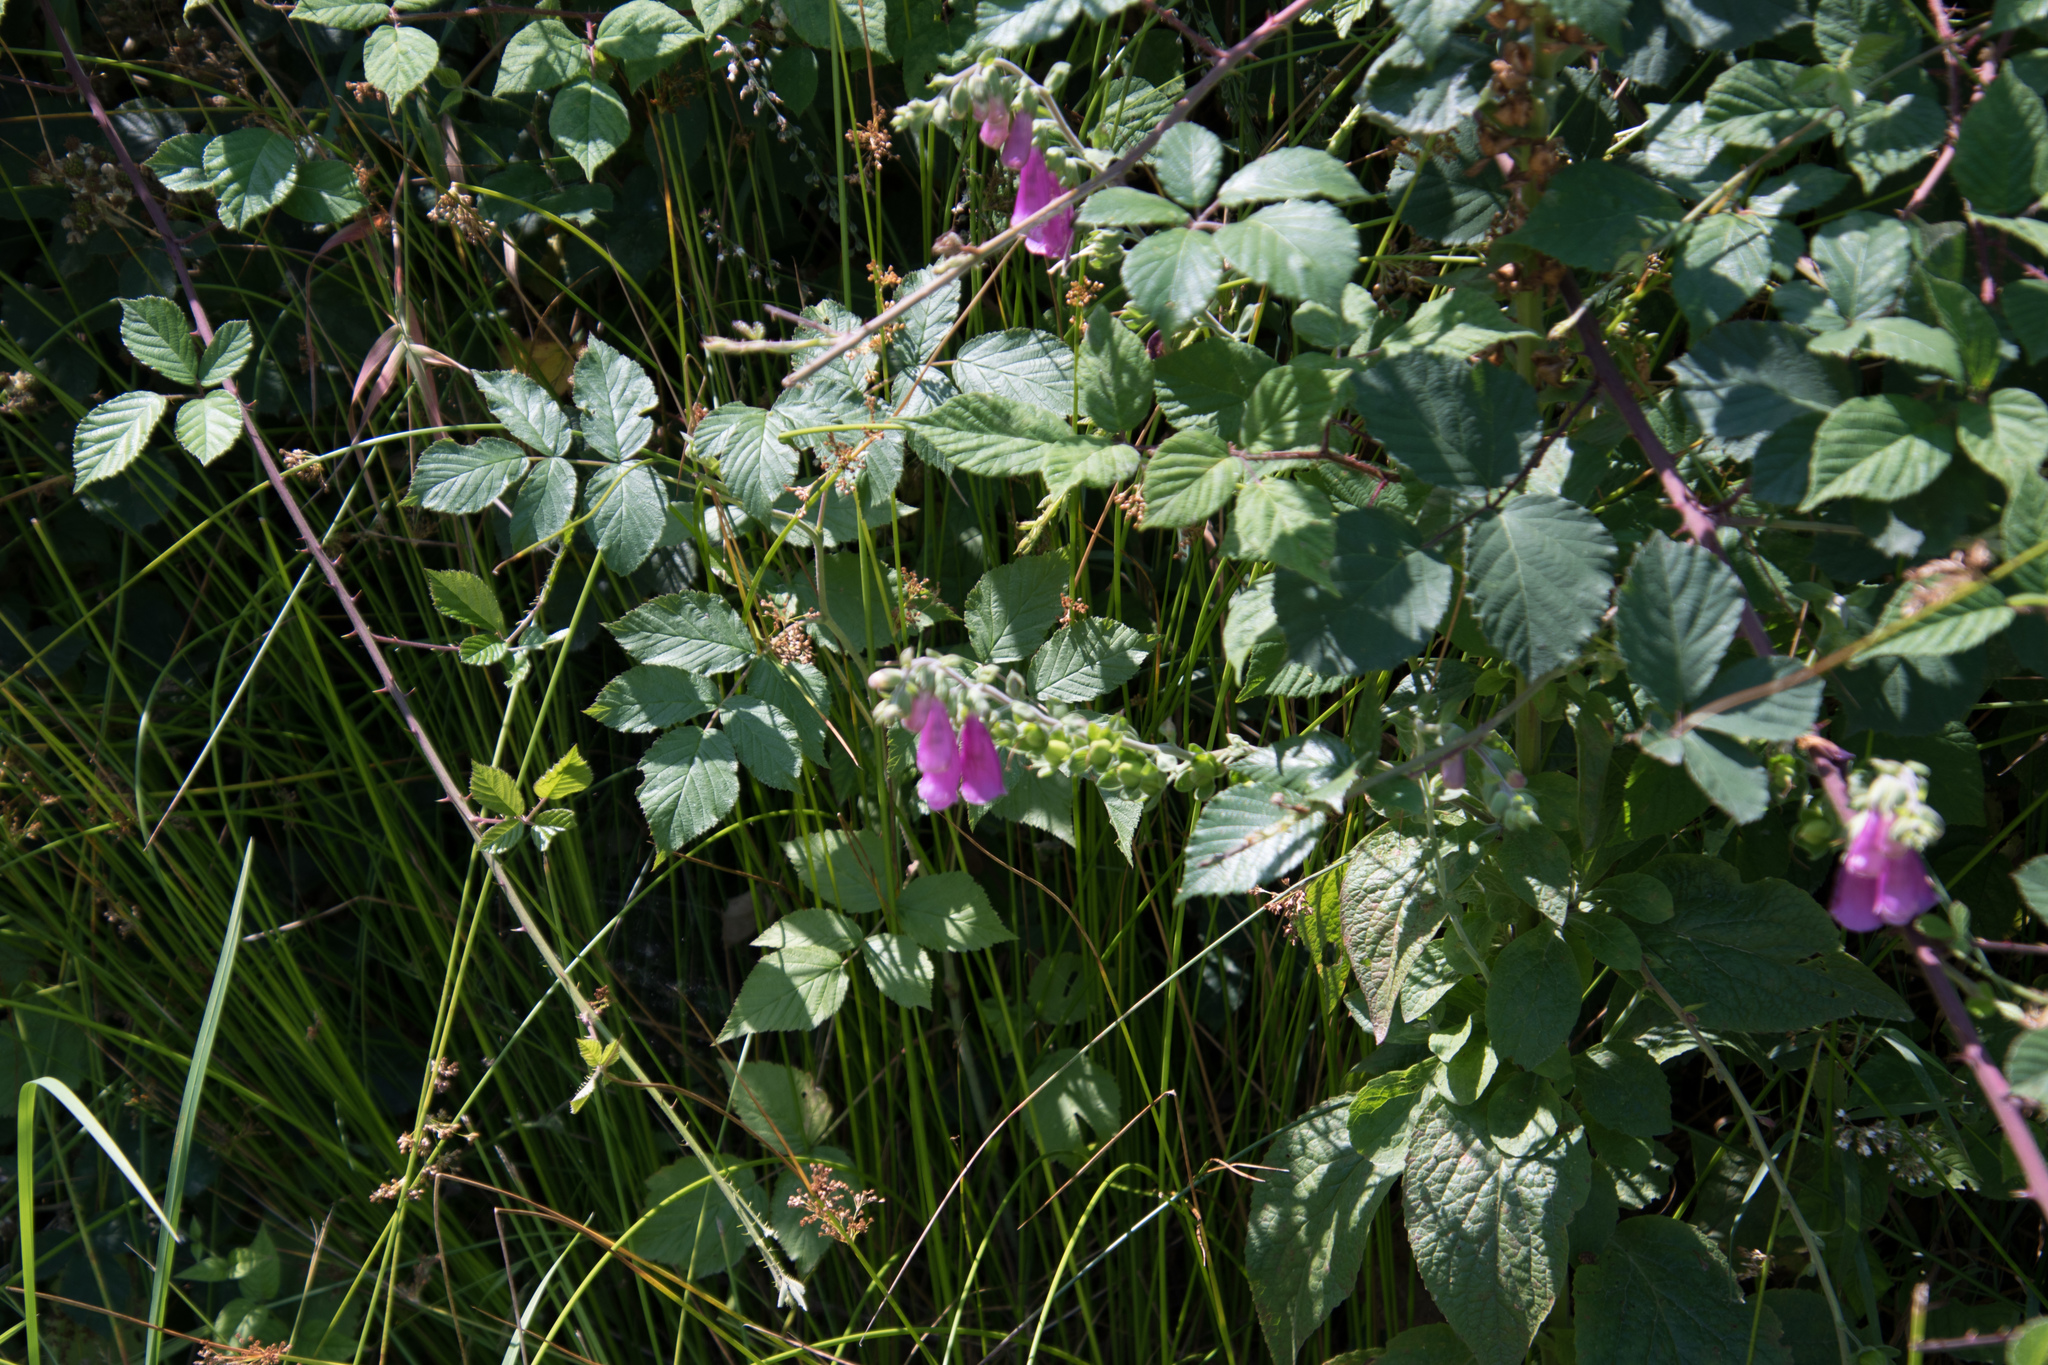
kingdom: Plantae
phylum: Tracheophyta
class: Magnoliopsida
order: Lamiales
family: Plantaginaceae
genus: Digitalis
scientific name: Digitalis purpurea
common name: Foxglove
